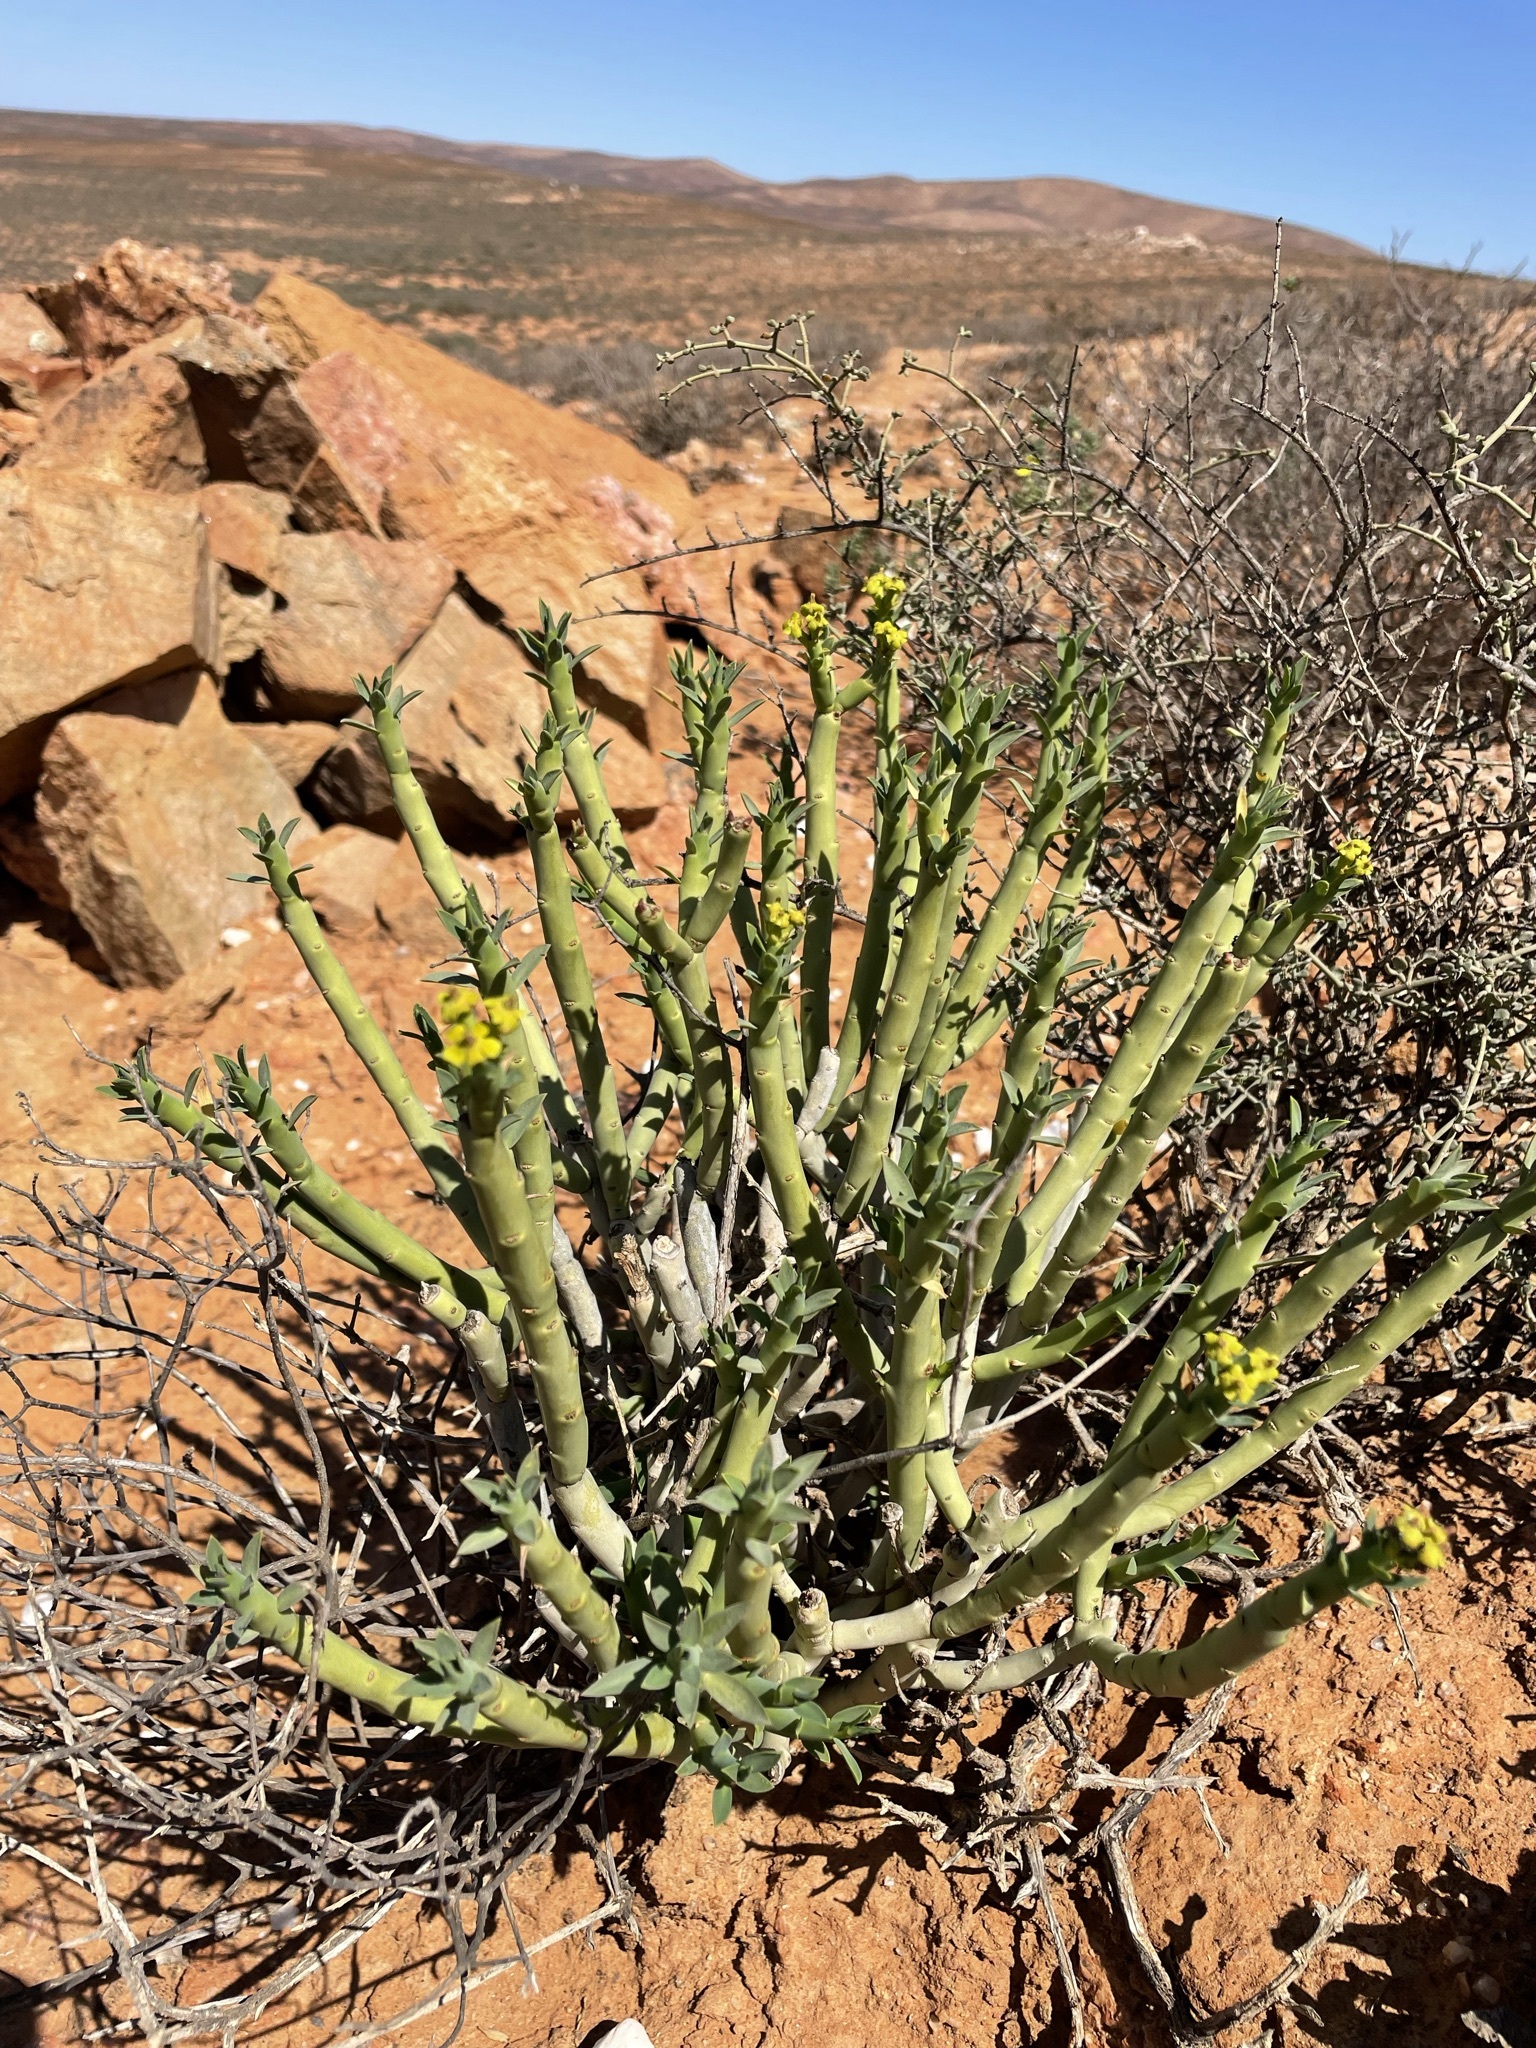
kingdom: Plantae
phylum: Tracheophyta
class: Magnoliopsida
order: Malpighiales
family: Euphorbiaceae
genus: Euphorbia
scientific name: Euphorbia mauritanica
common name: Jackal's-food
